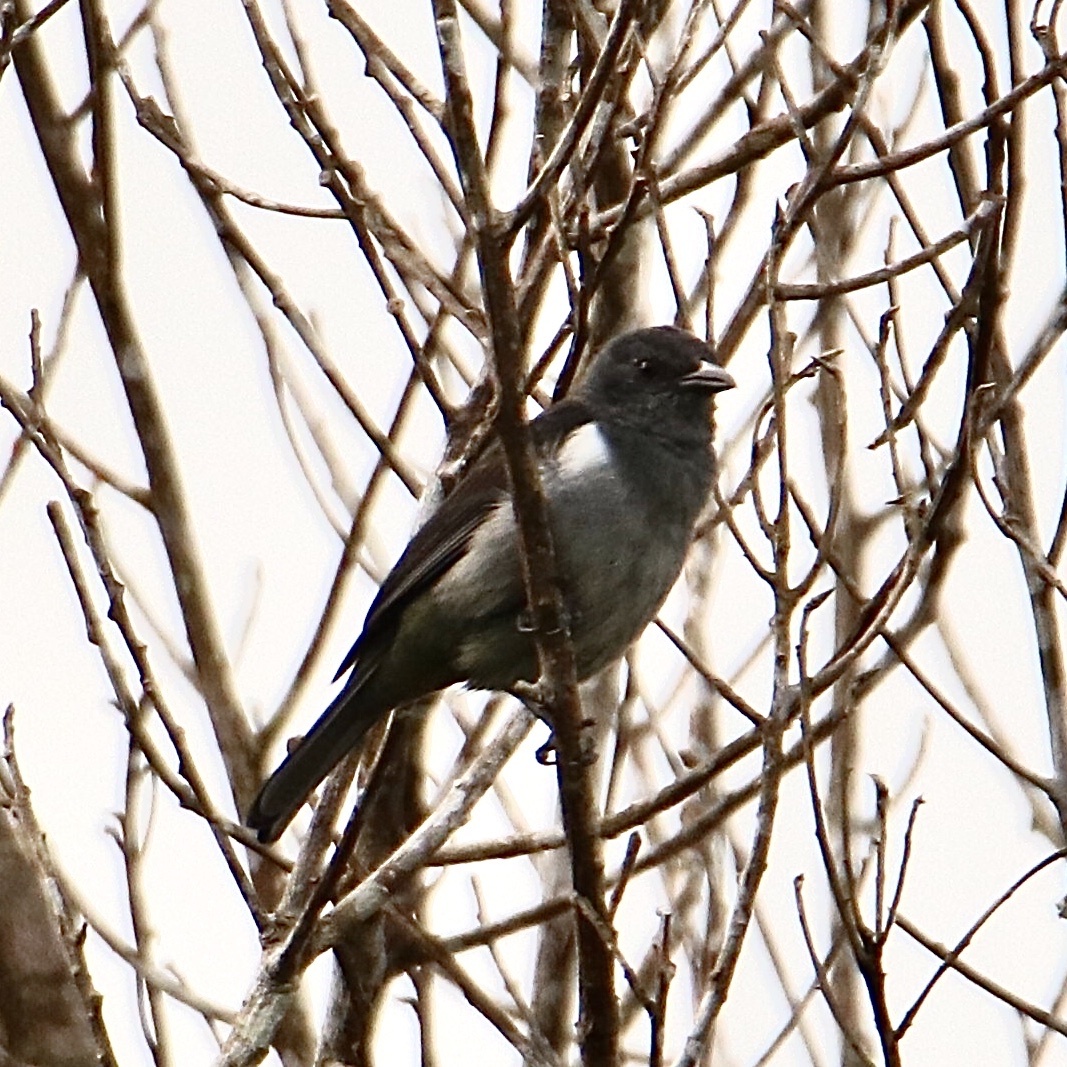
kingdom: Animalia
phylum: Chordata
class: Aves
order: Passeriformes
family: Thraupidae
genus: Heterospingus
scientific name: Heterospingus rubrifrons
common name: Sulphur-rumped tanager
